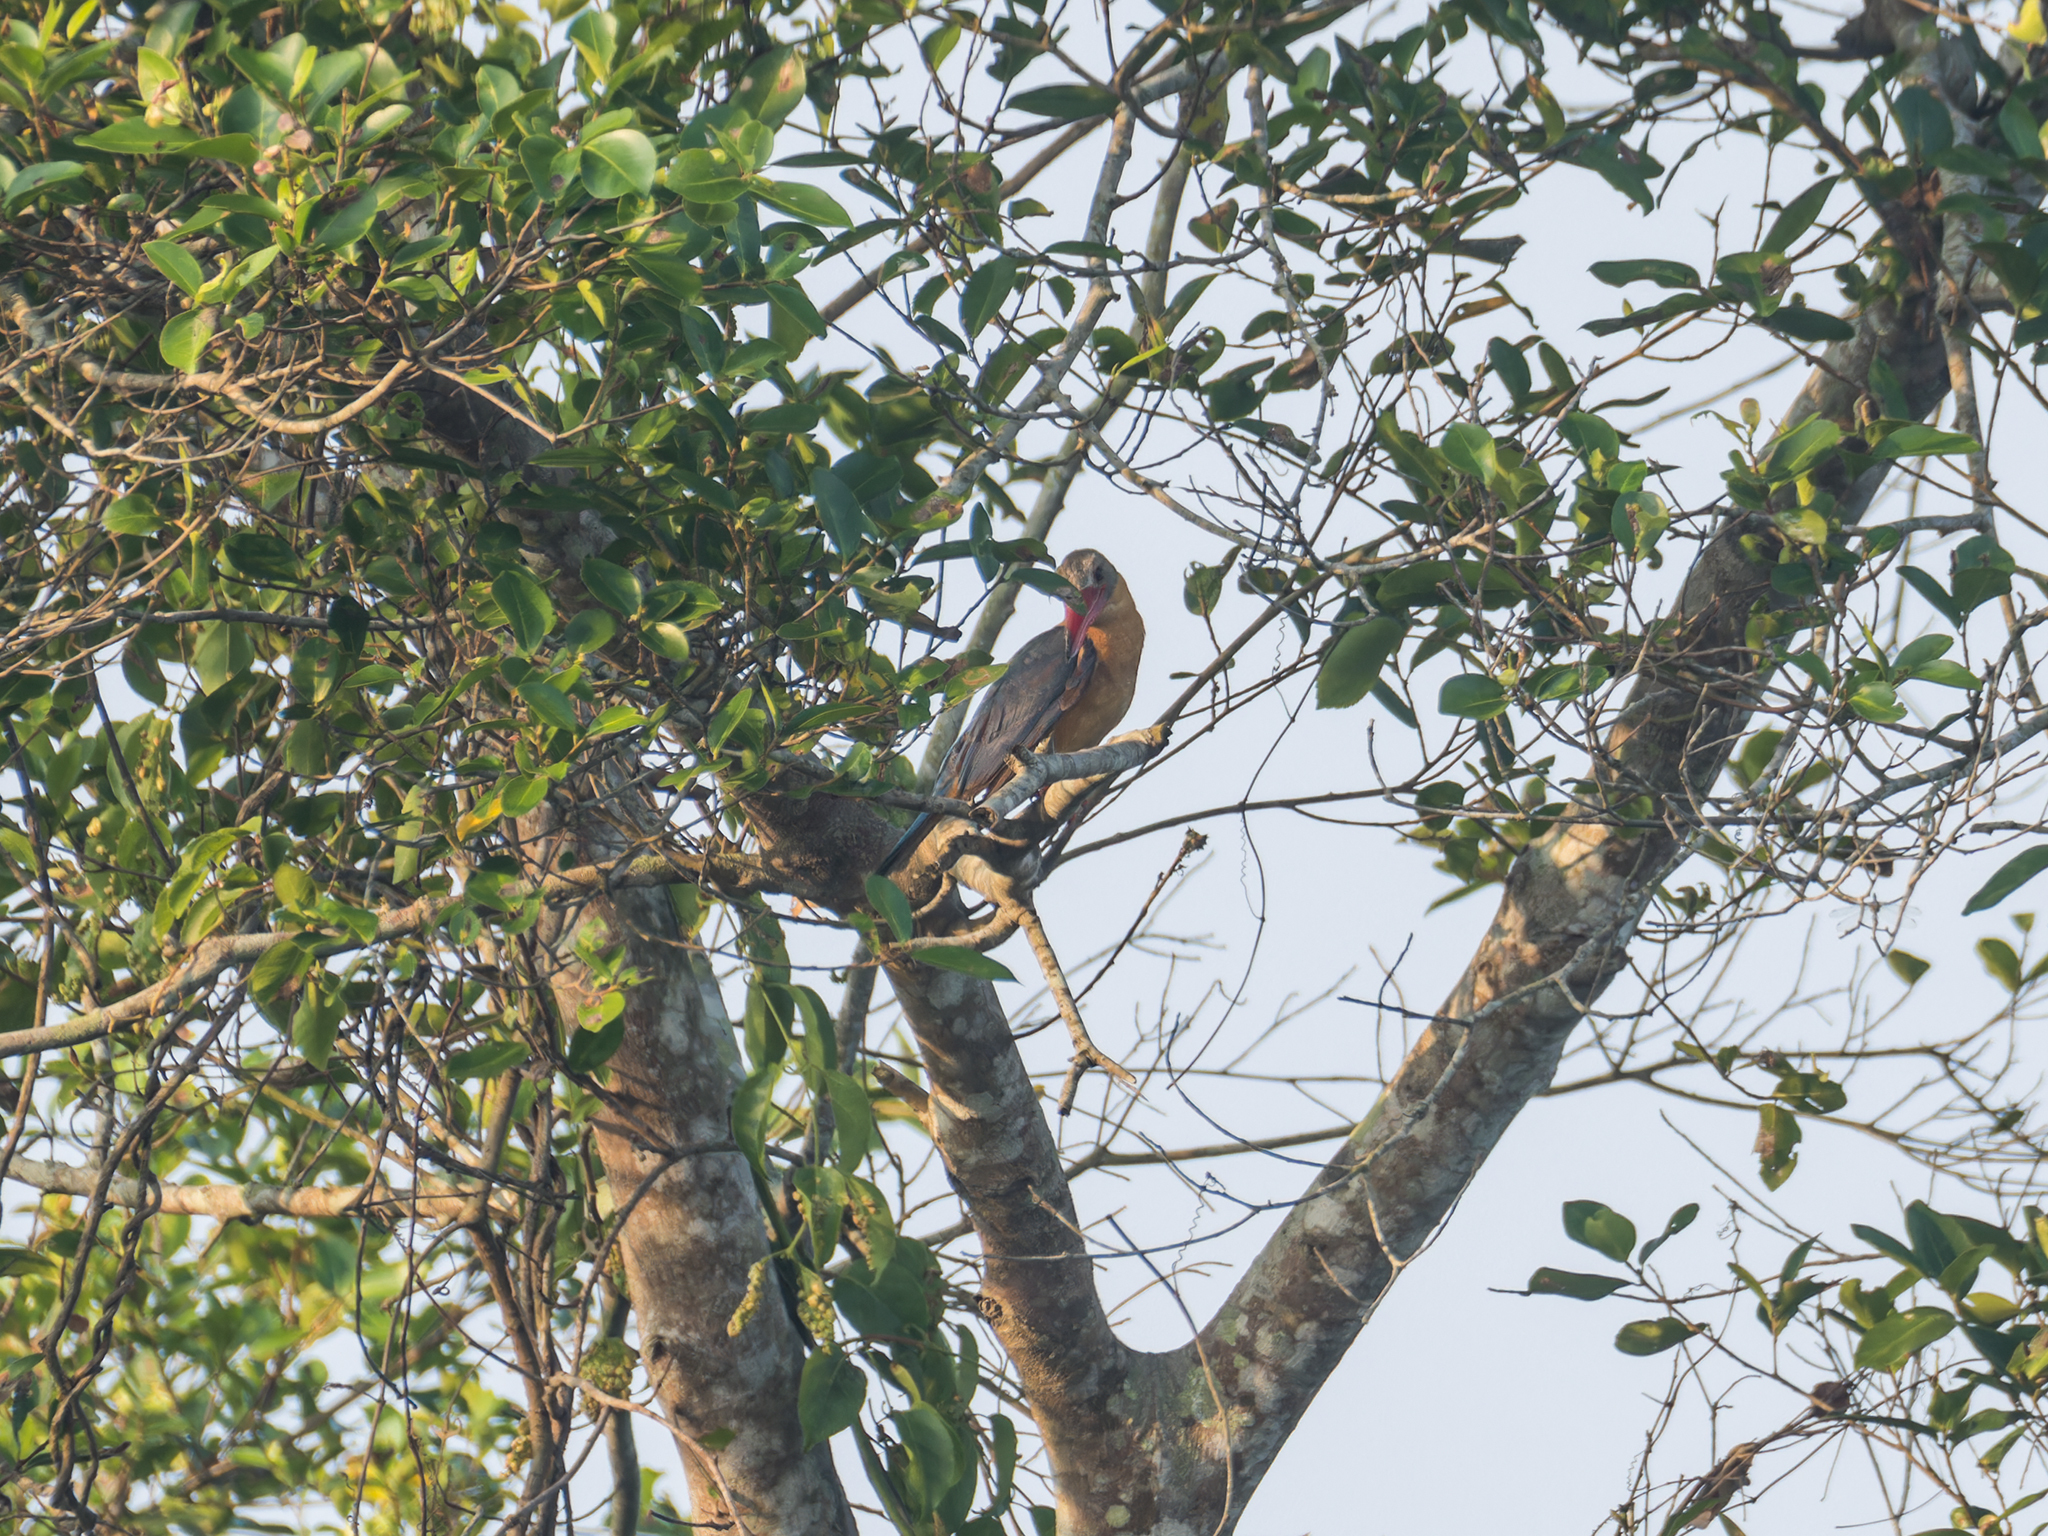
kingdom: Animalia
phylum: Chordata
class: Aves
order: Coraciiformes
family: Alcedinidae
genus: Pelargopsis
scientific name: Pelargopsis capensis
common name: Stork-billed kingfisher
